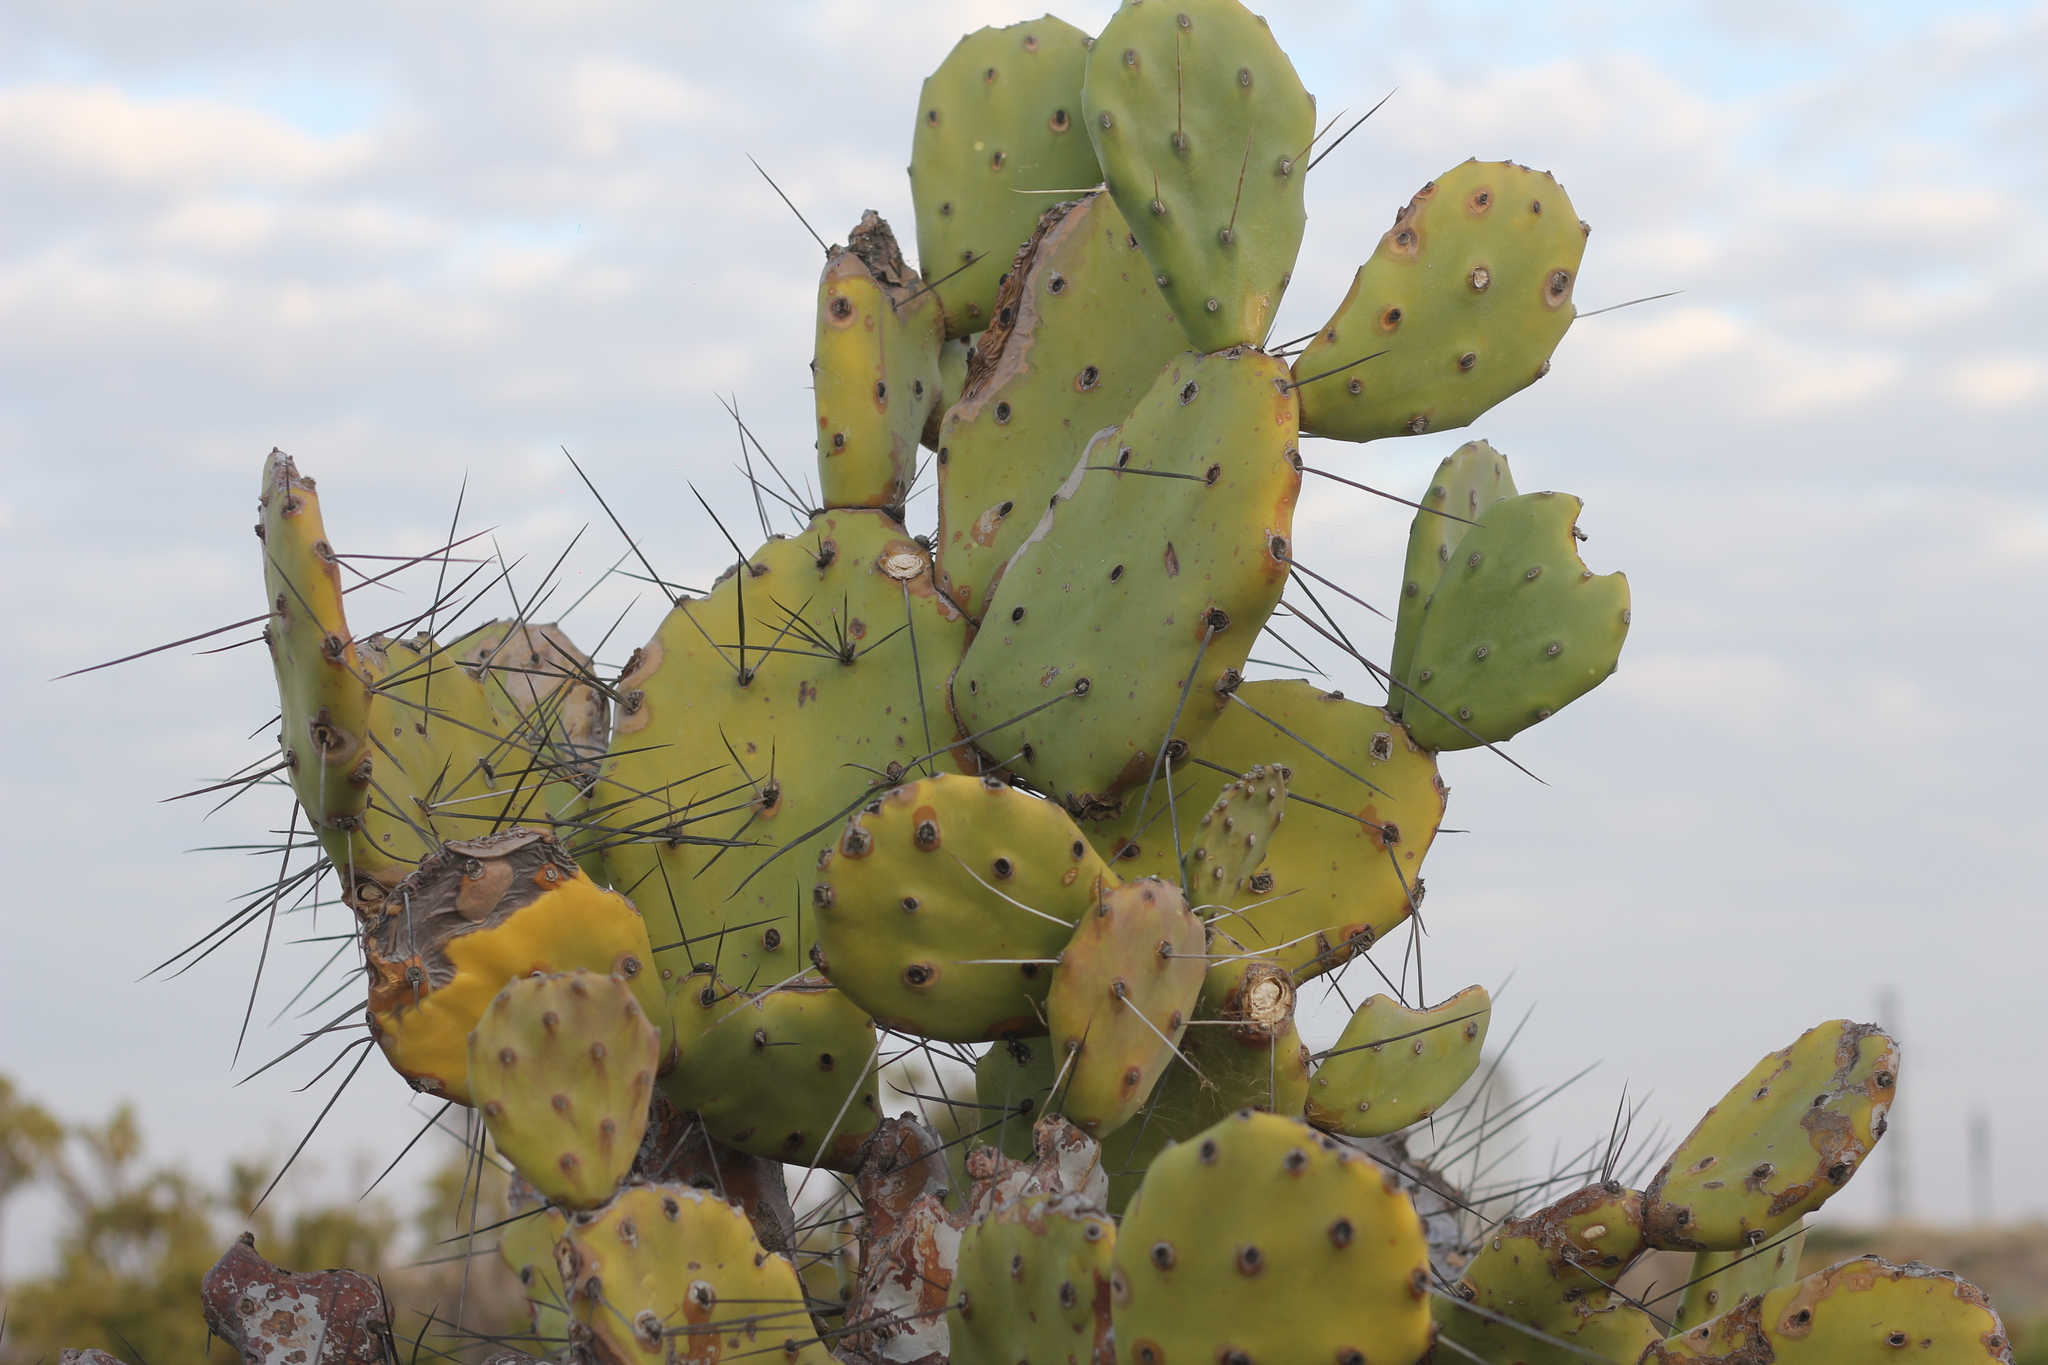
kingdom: Plantae
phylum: Tracheophyta
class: Magnoliopsida
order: Caryophyllales
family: Cactaceae
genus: Opuntia
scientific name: Opuntia quimilo
